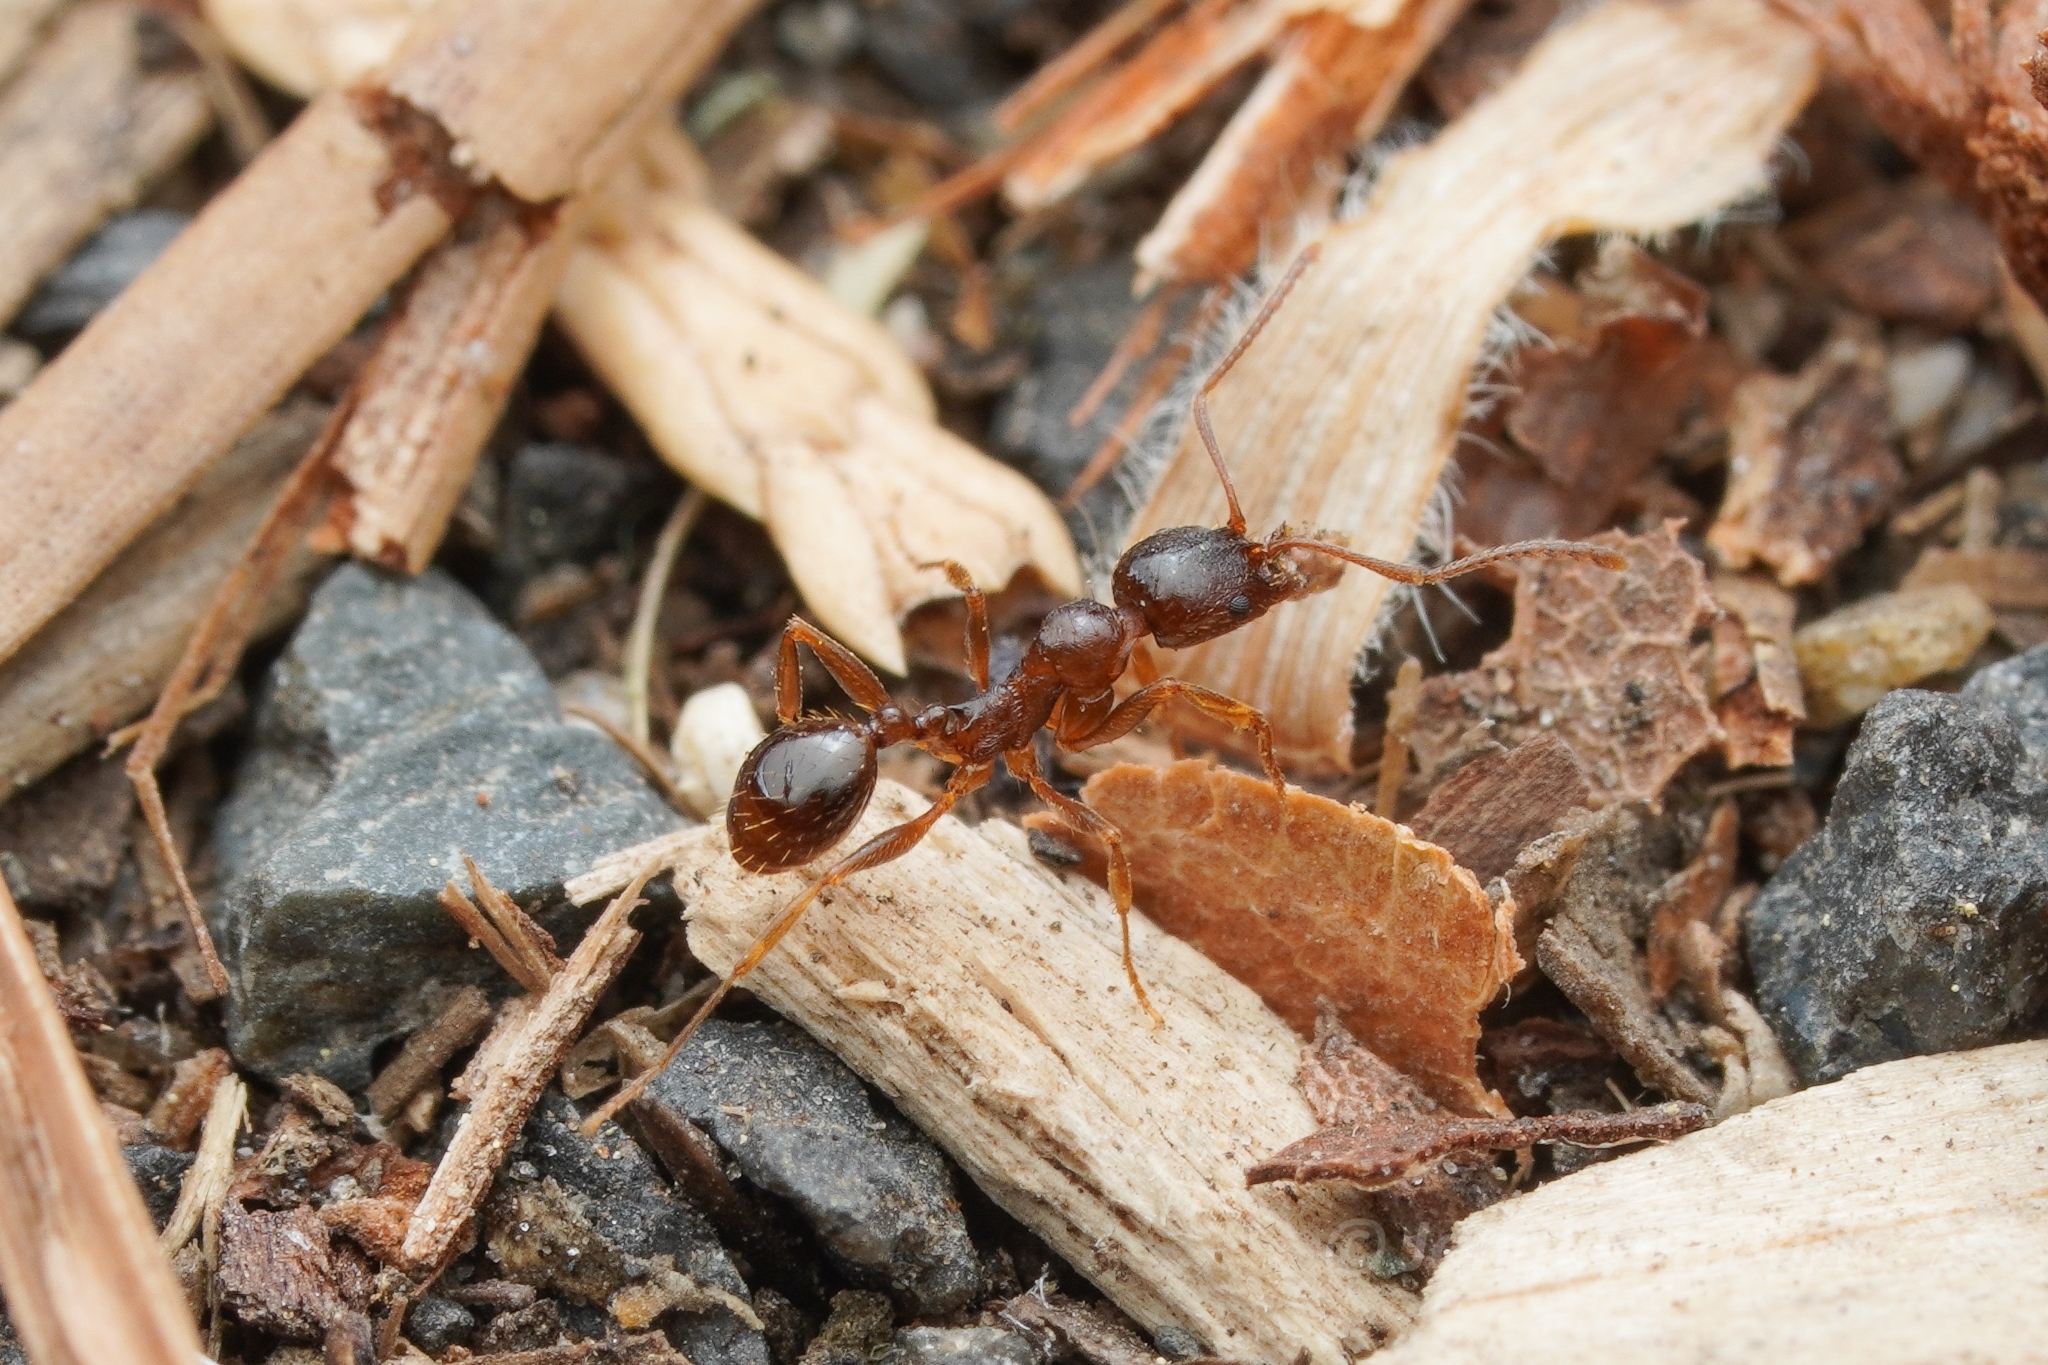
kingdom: Animalia
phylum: Arthropoda
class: Insecta
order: Hymenoptera
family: Formicidae
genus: Aphaenogaster
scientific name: Aphaenogaster occidentalis
